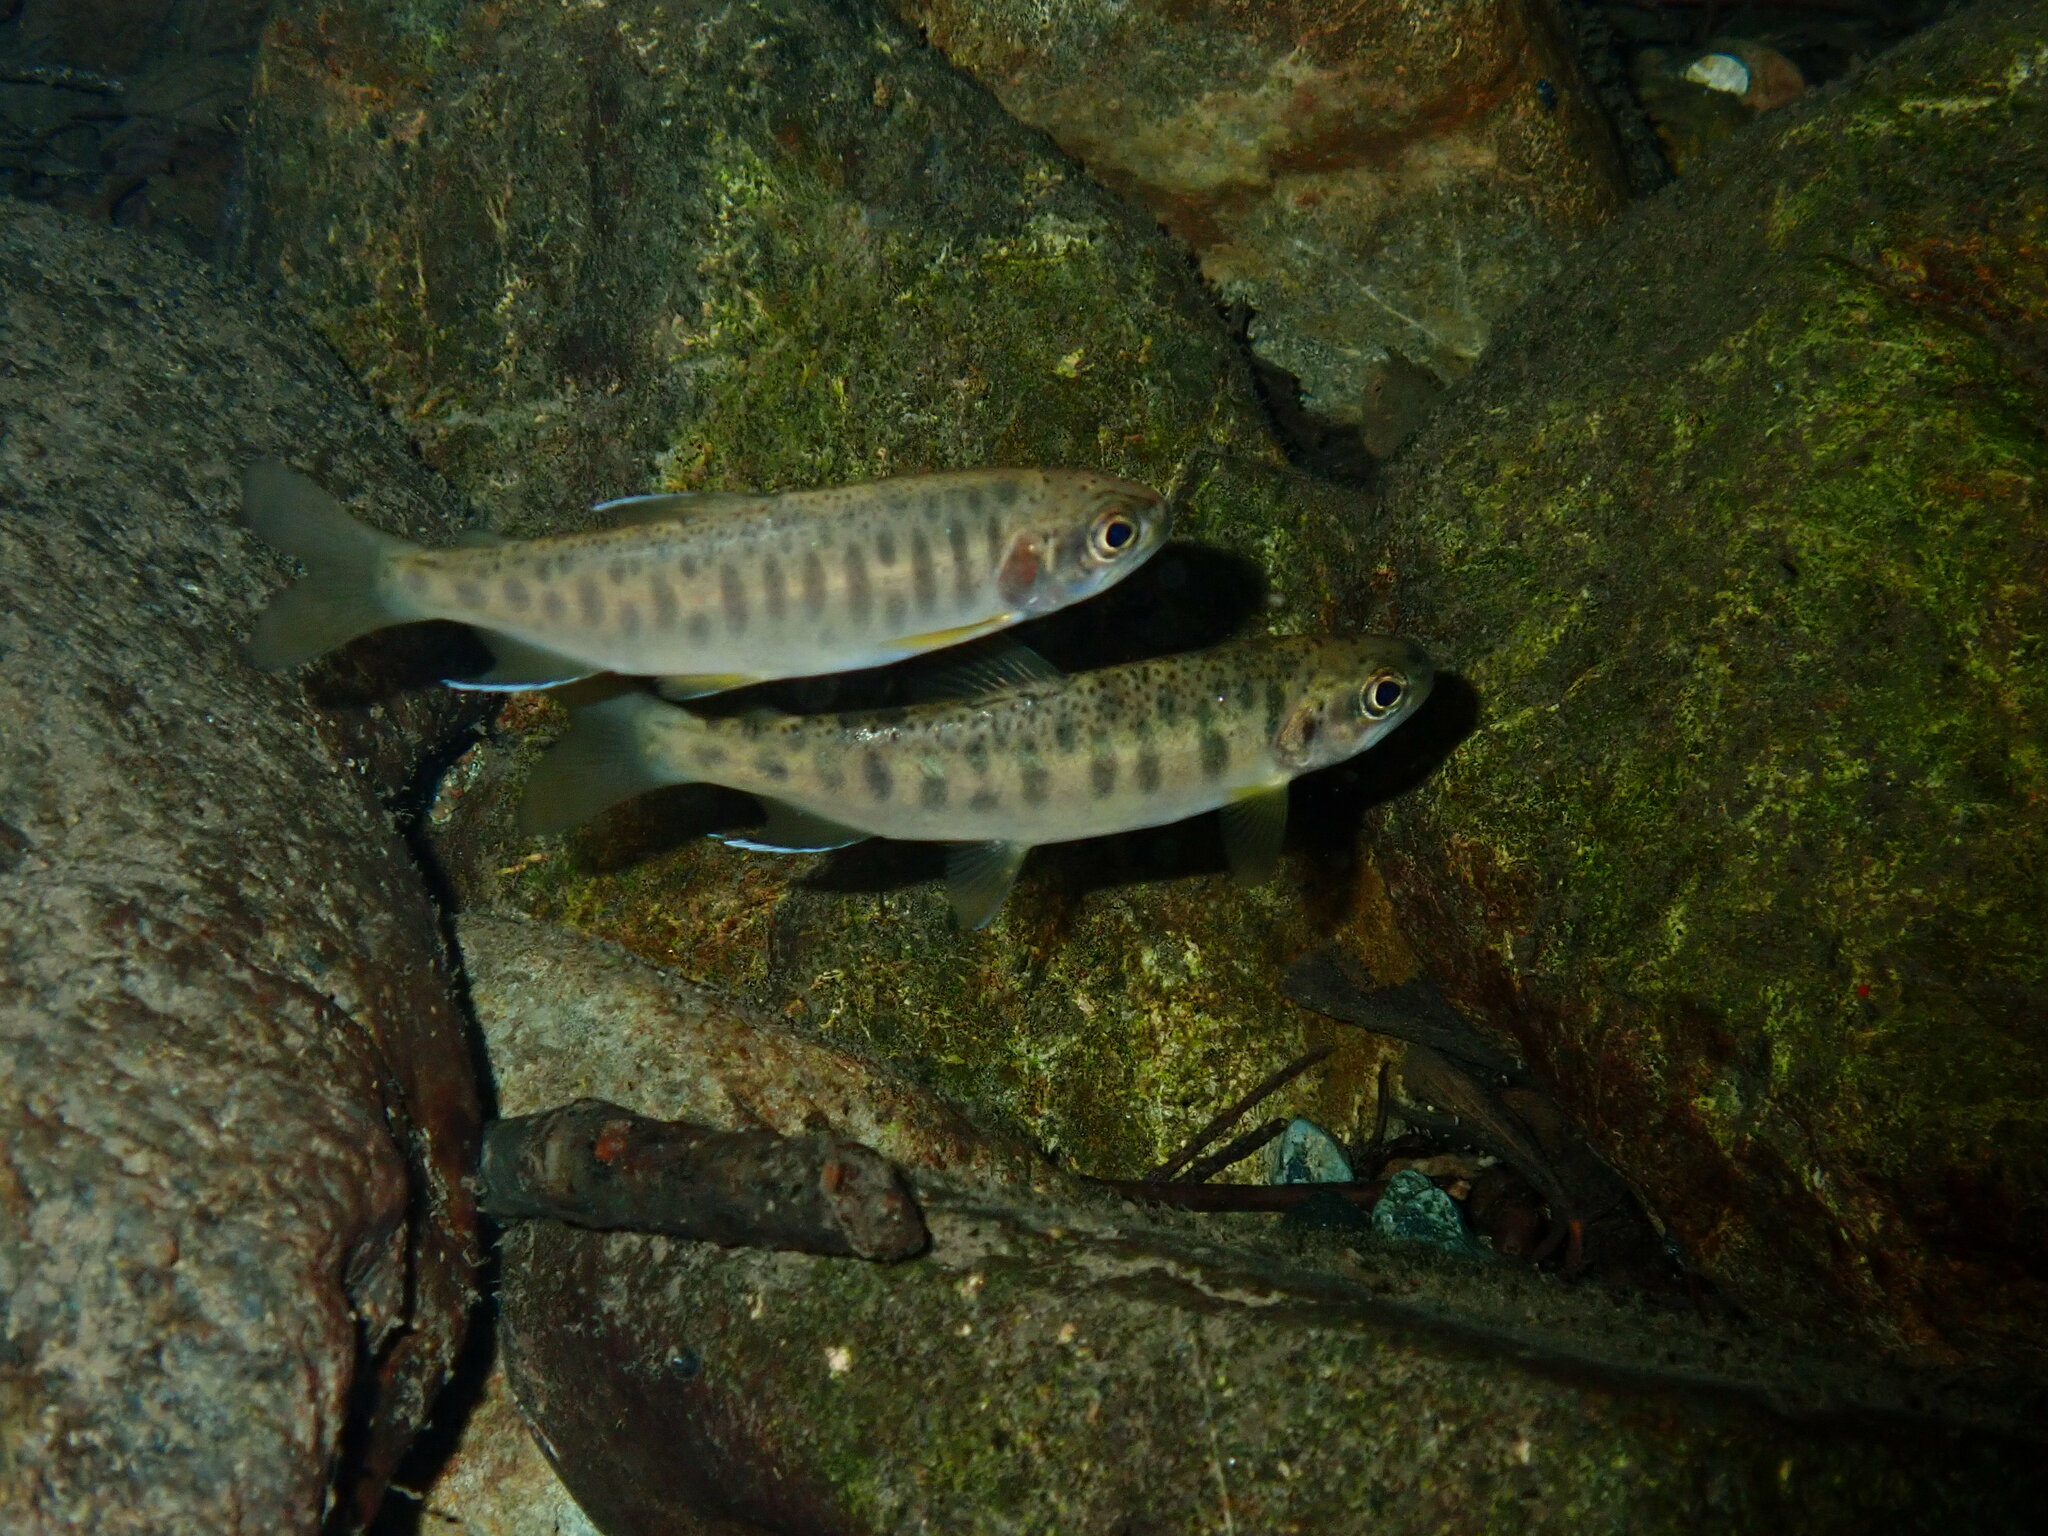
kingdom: Animalia
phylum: Chordata
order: Salmoniformes
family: Salmonidae
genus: Oncorhynchus
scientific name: Oncorhynchus kisutch
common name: Coho salmon
